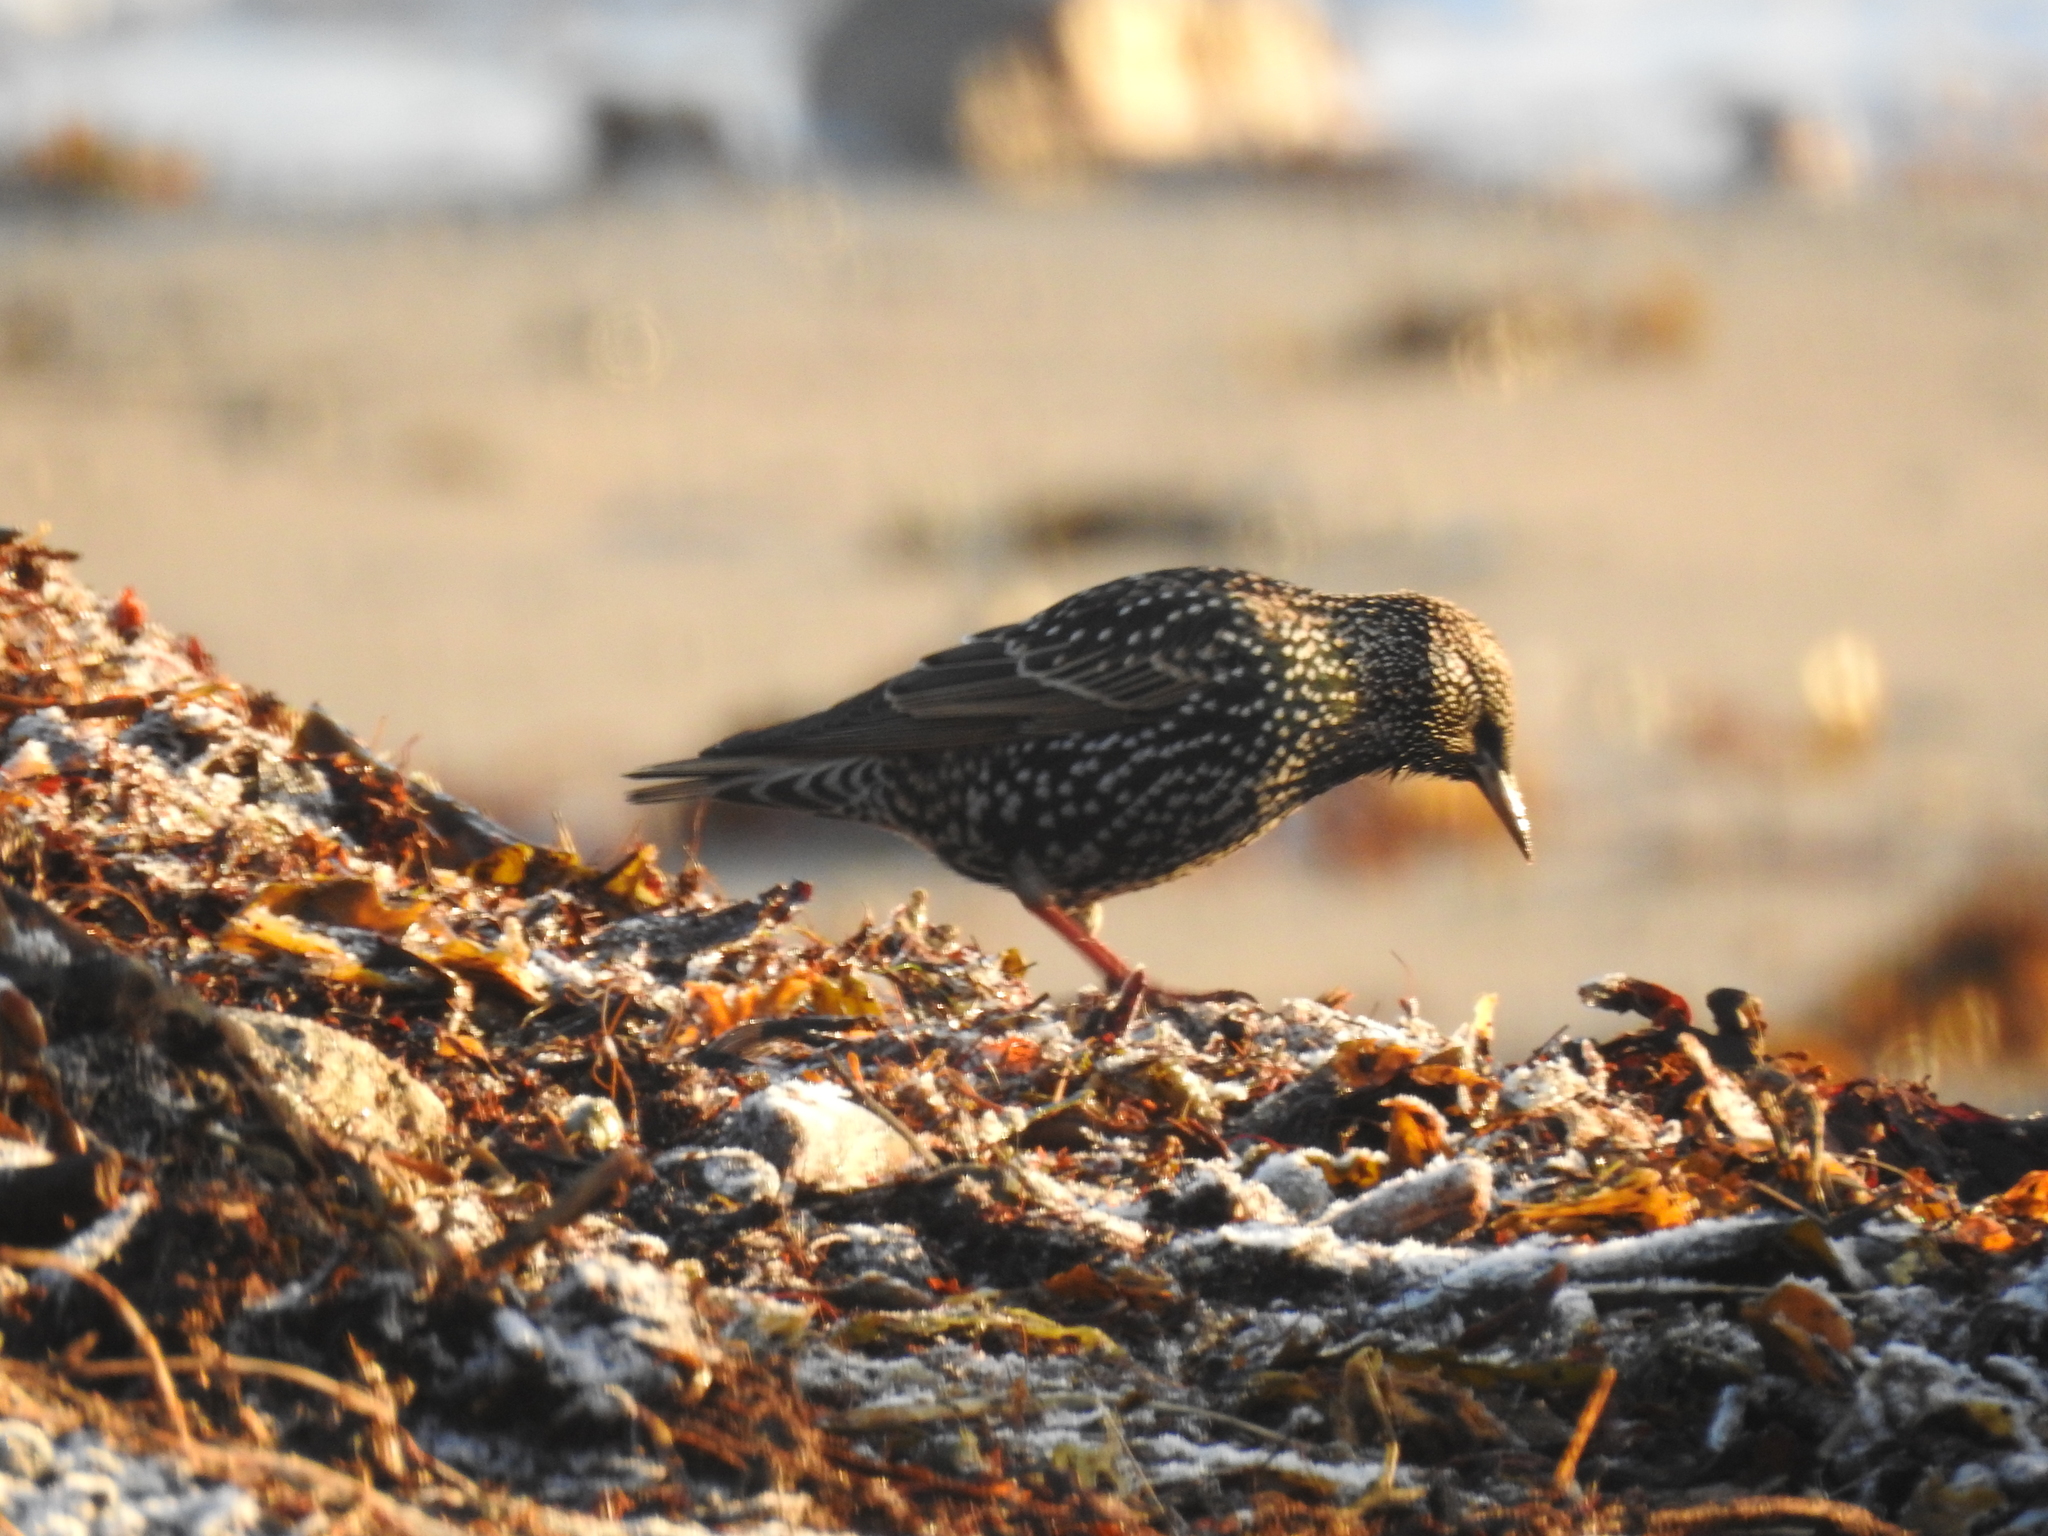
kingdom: Animalia
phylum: Chordata
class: Aves
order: Passeriformes
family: Sturnidae
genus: Sturnus
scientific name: Sturnus vulgaris
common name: Common starling
